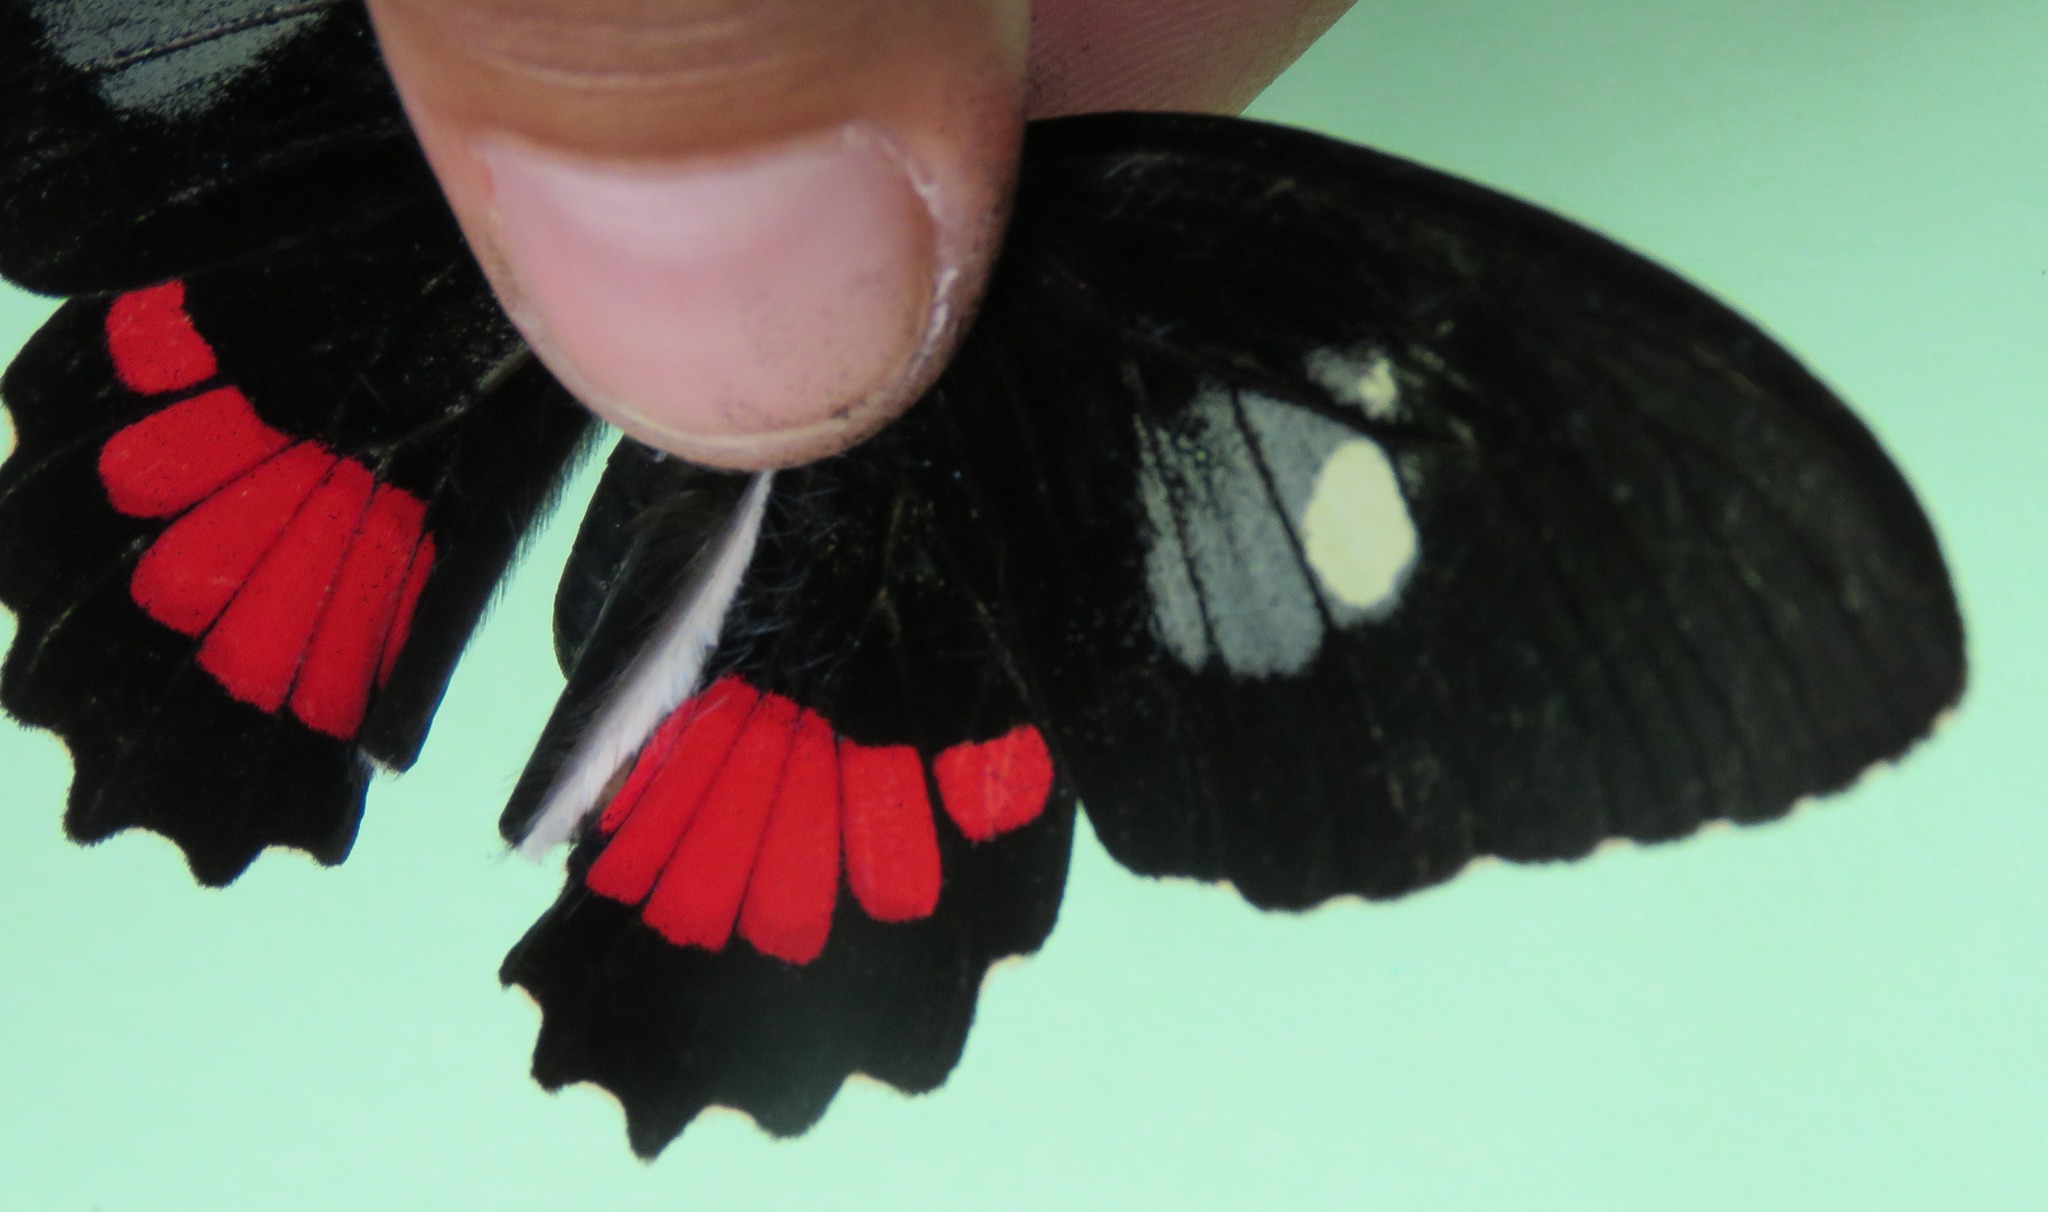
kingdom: Animalia
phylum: Arthropoda
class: Insecta
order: Lepidoptera
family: Papilionidae
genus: Parides
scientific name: Parides iphidamas
